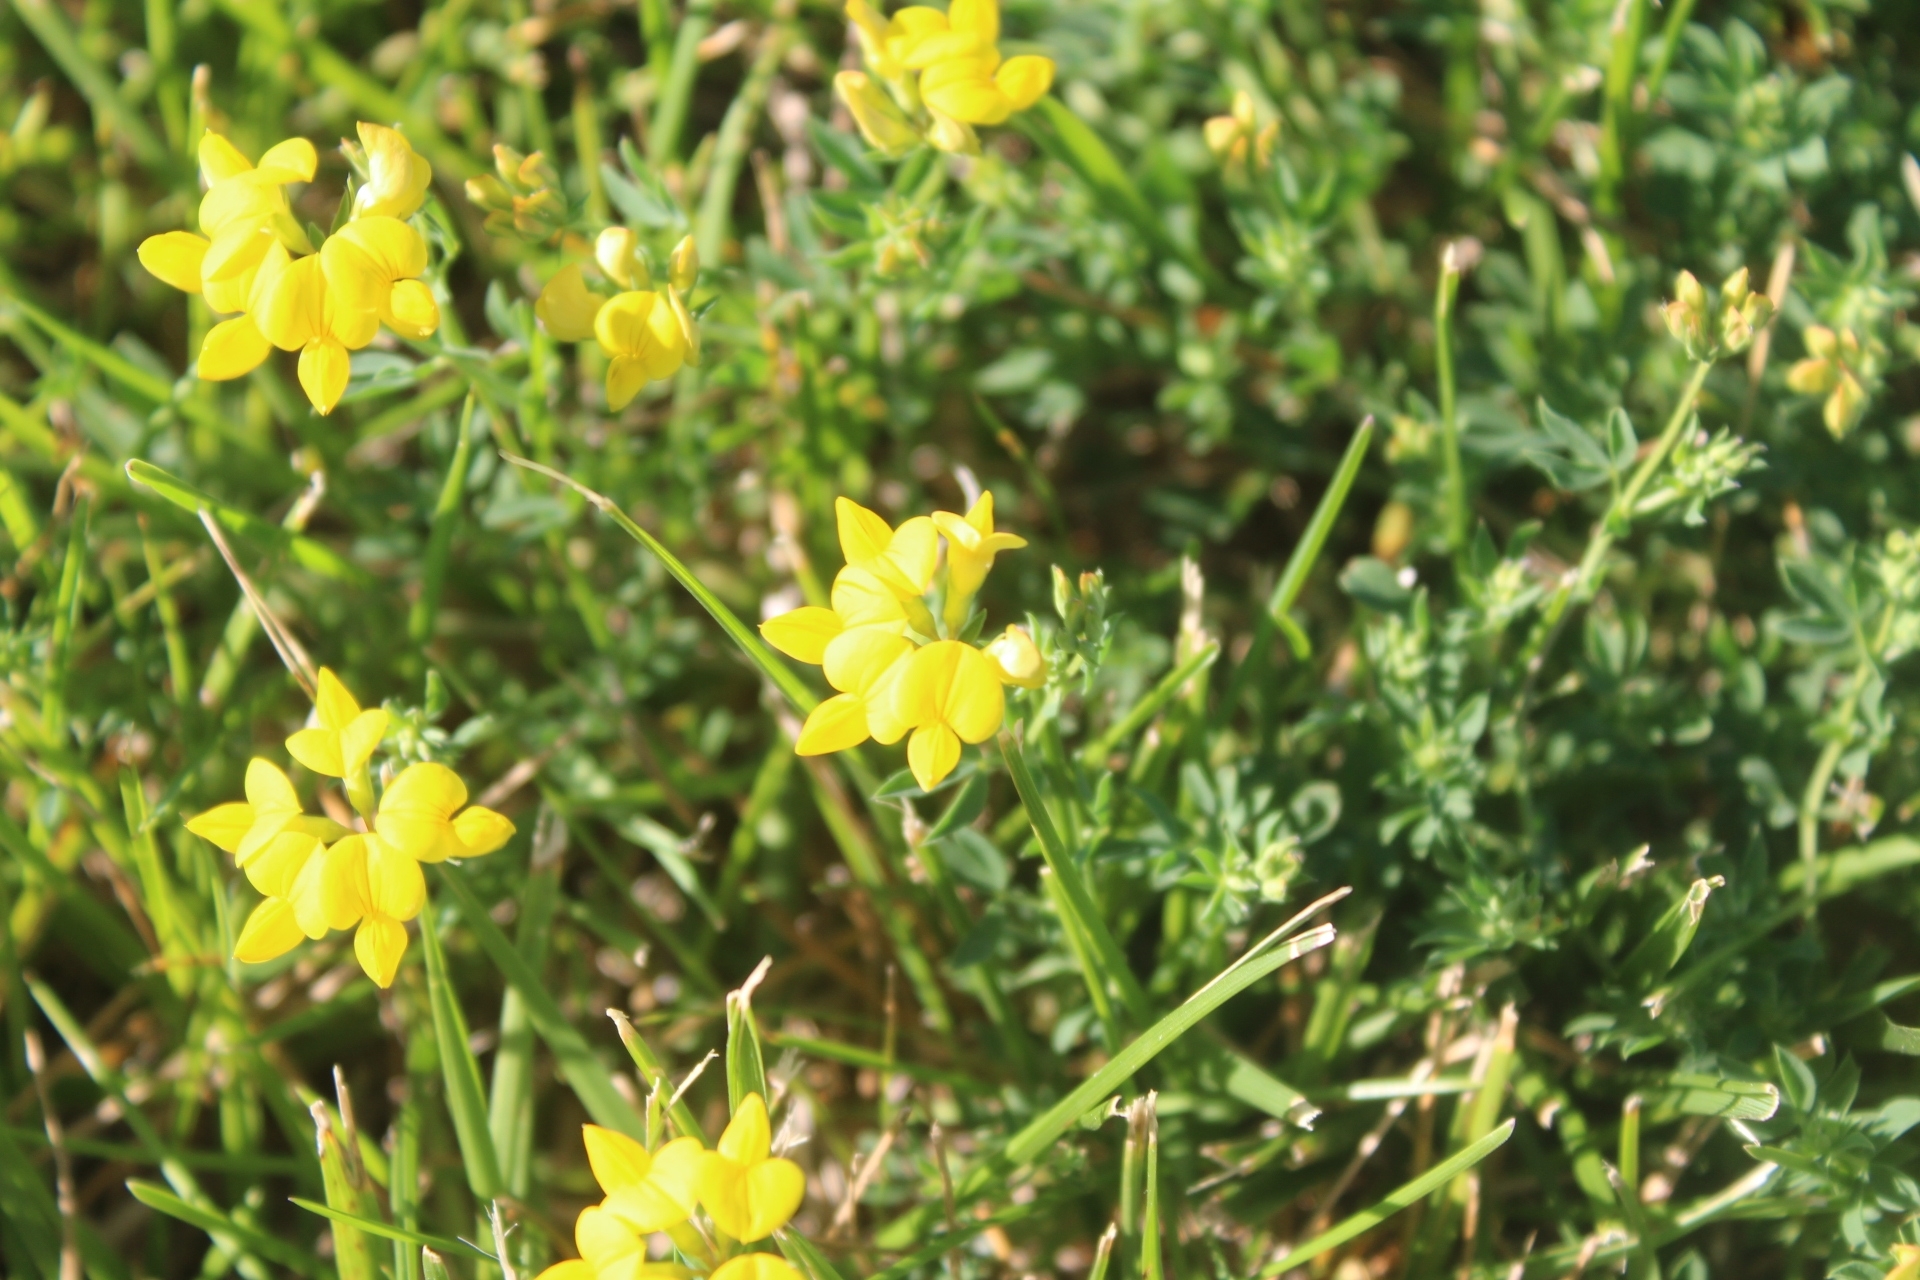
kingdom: Plantae
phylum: Tracheophyta
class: Magnoliopsida
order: Fabales
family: Fabaceae
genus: Lotus
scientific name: Lotus corniculatus
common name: Common bird's-foot-trefoil
